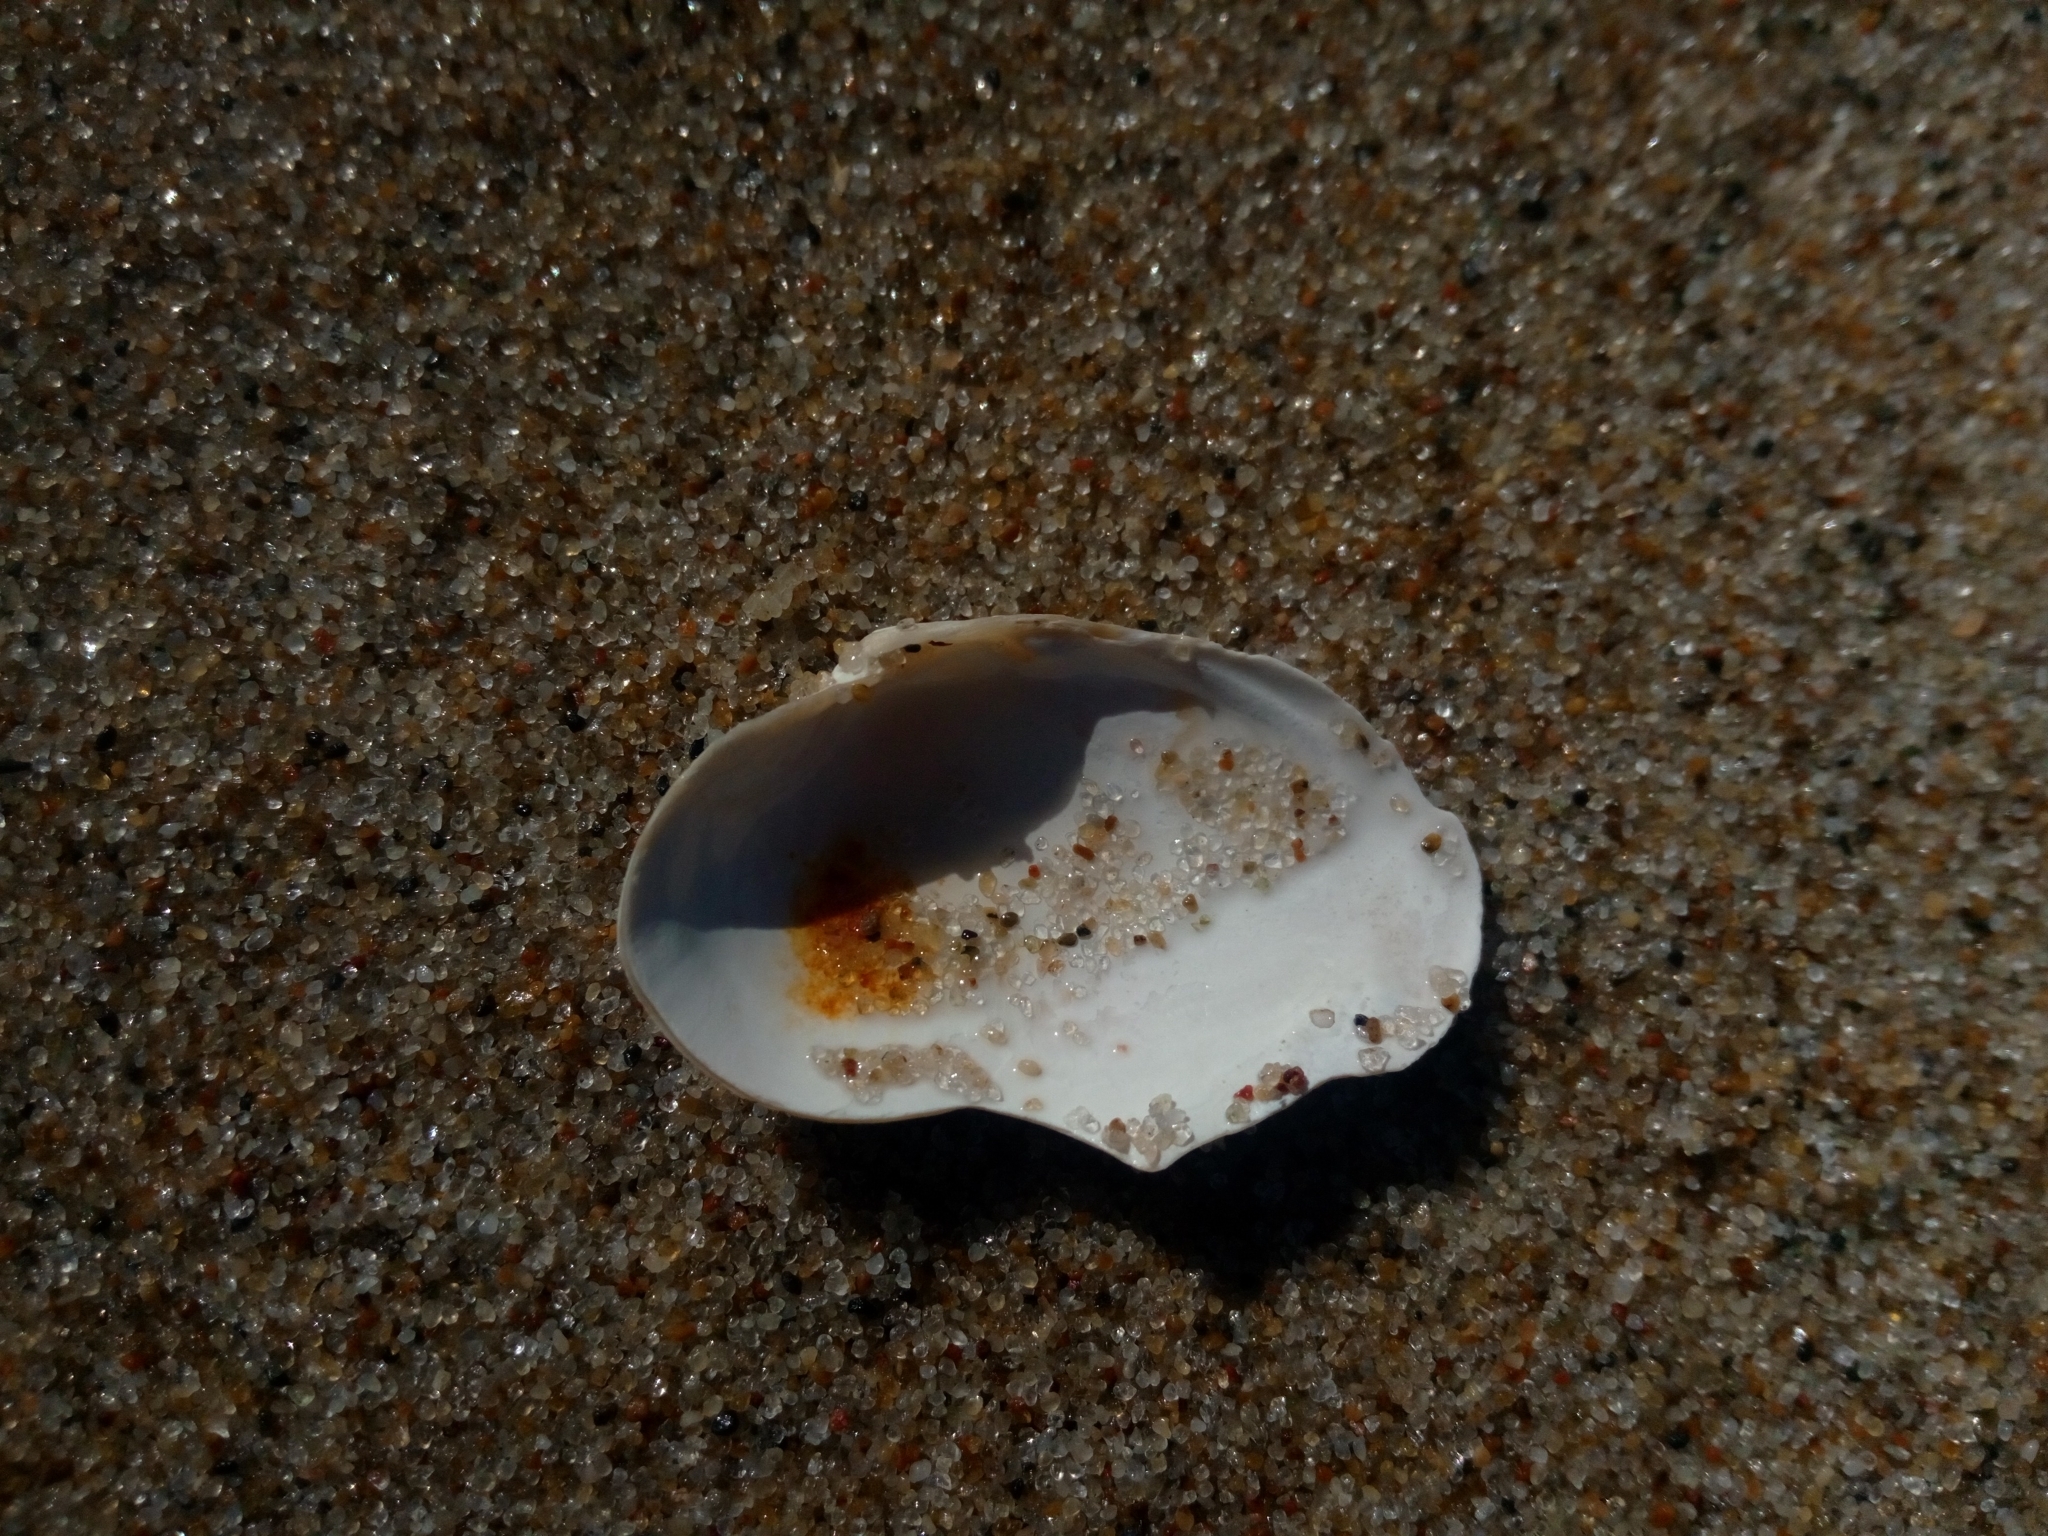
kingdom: Animalia
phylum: Mollusca
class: Bivalvia
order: Myida
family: Myidae
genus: Mya
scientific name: Mya arenaria
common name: Soft-shelled clam
